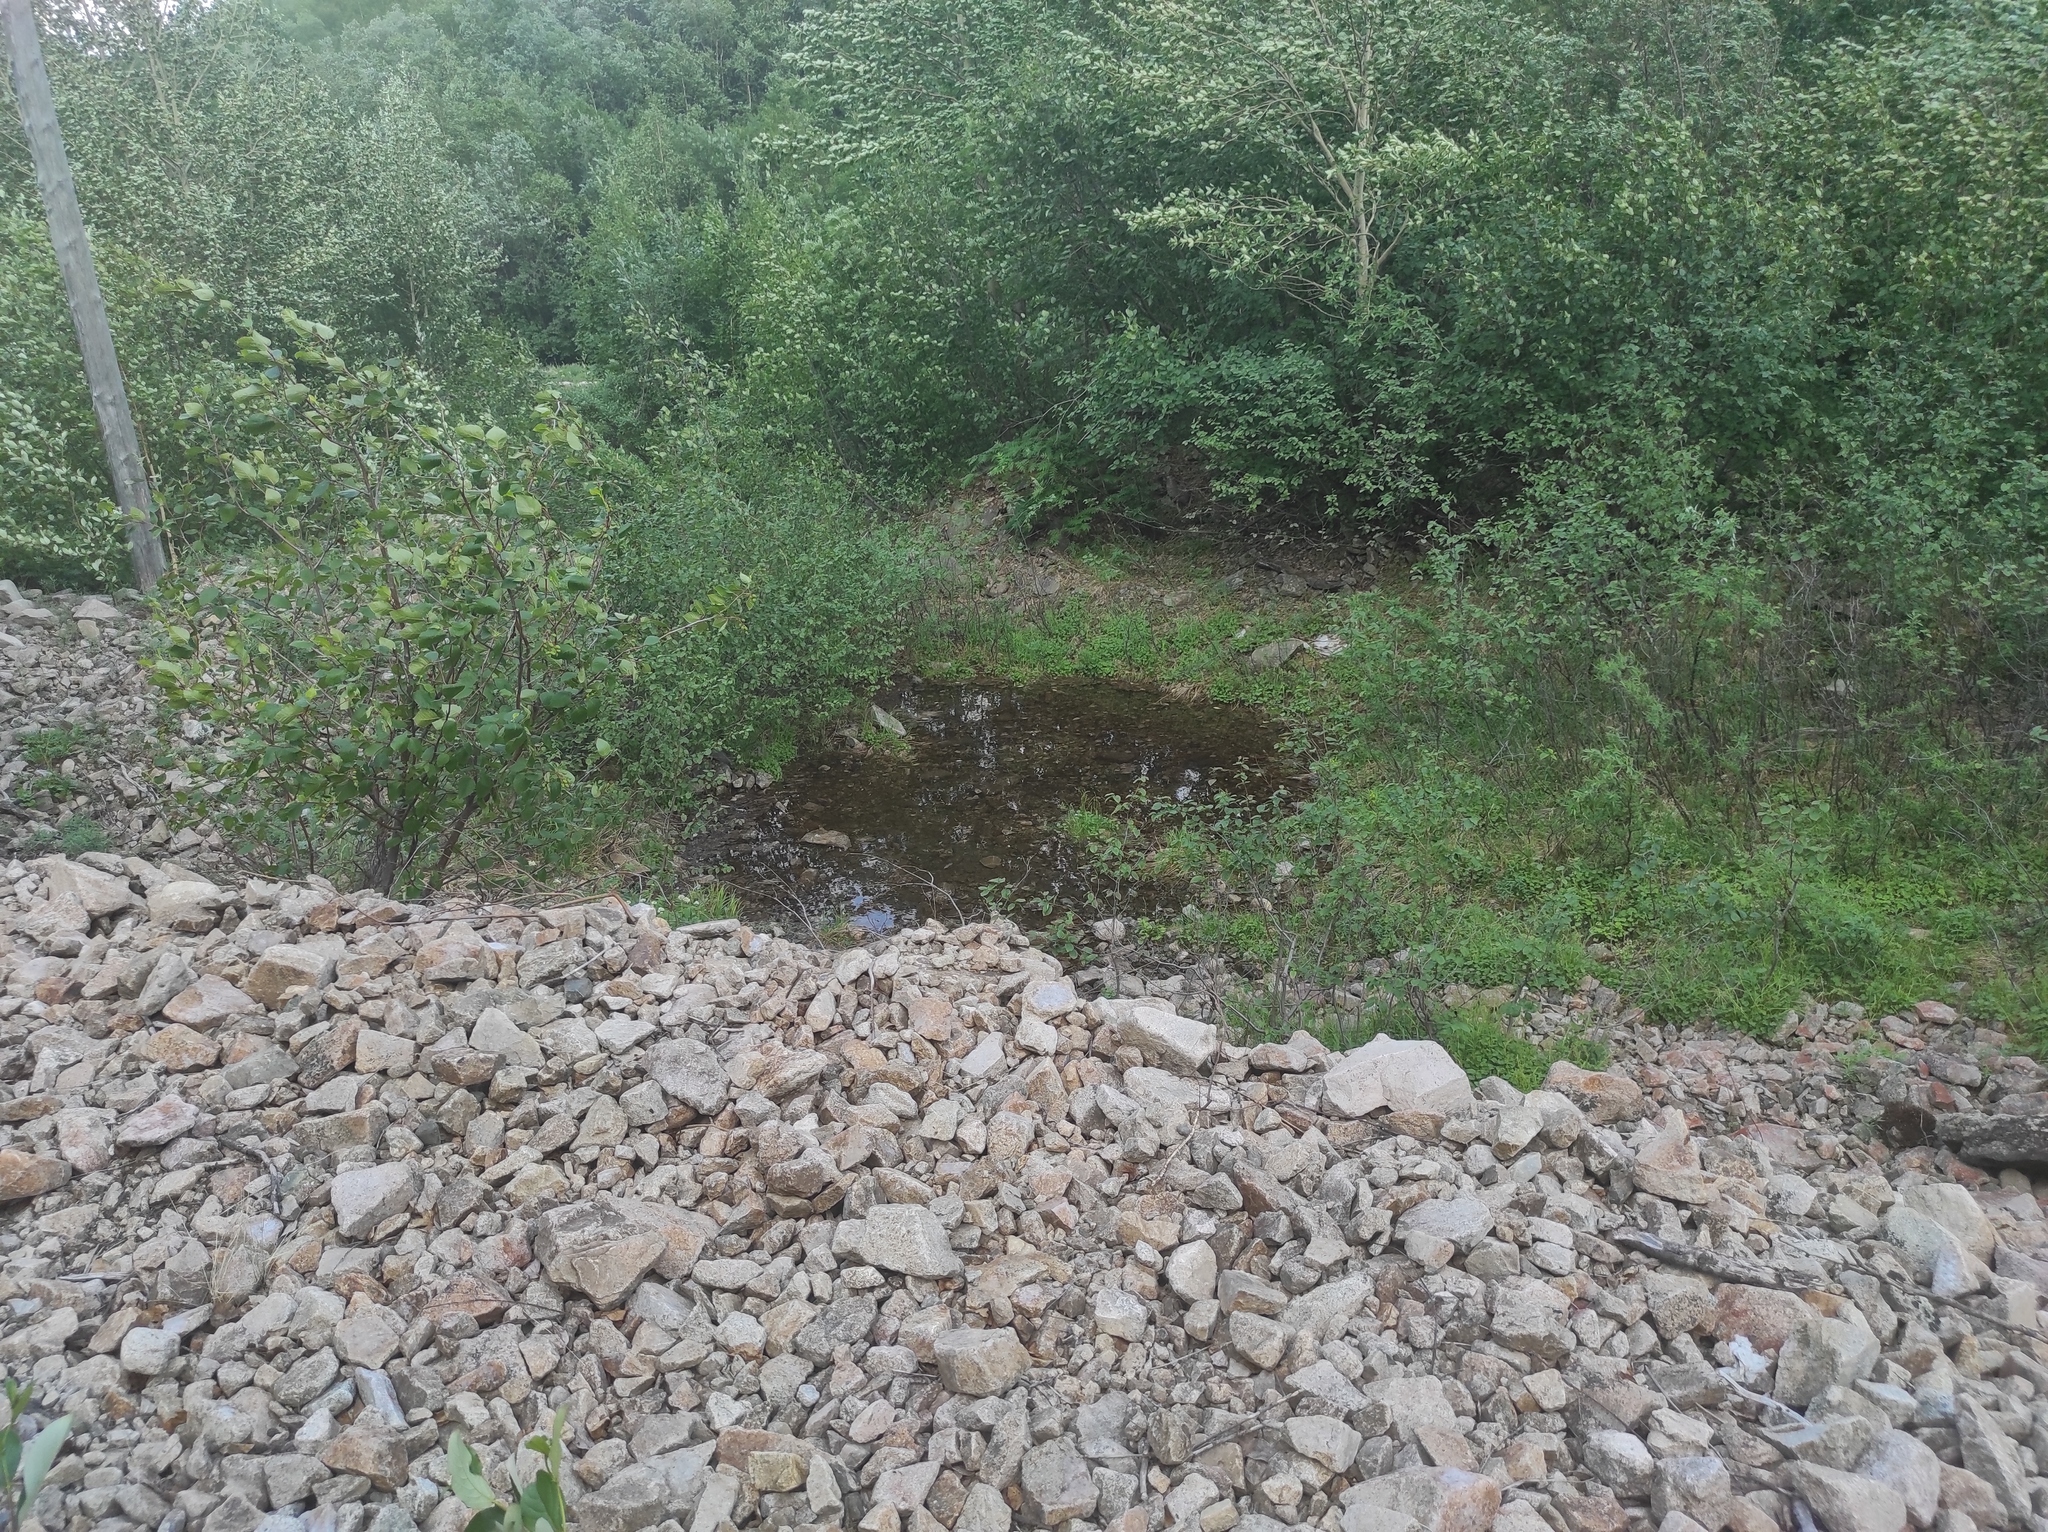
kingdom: Plantae
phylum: Tracheophyta
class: Magnoliopsida
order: Malpighiales
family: Salicaceae
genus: Populus
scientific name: Populus tremula
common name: European aspen
